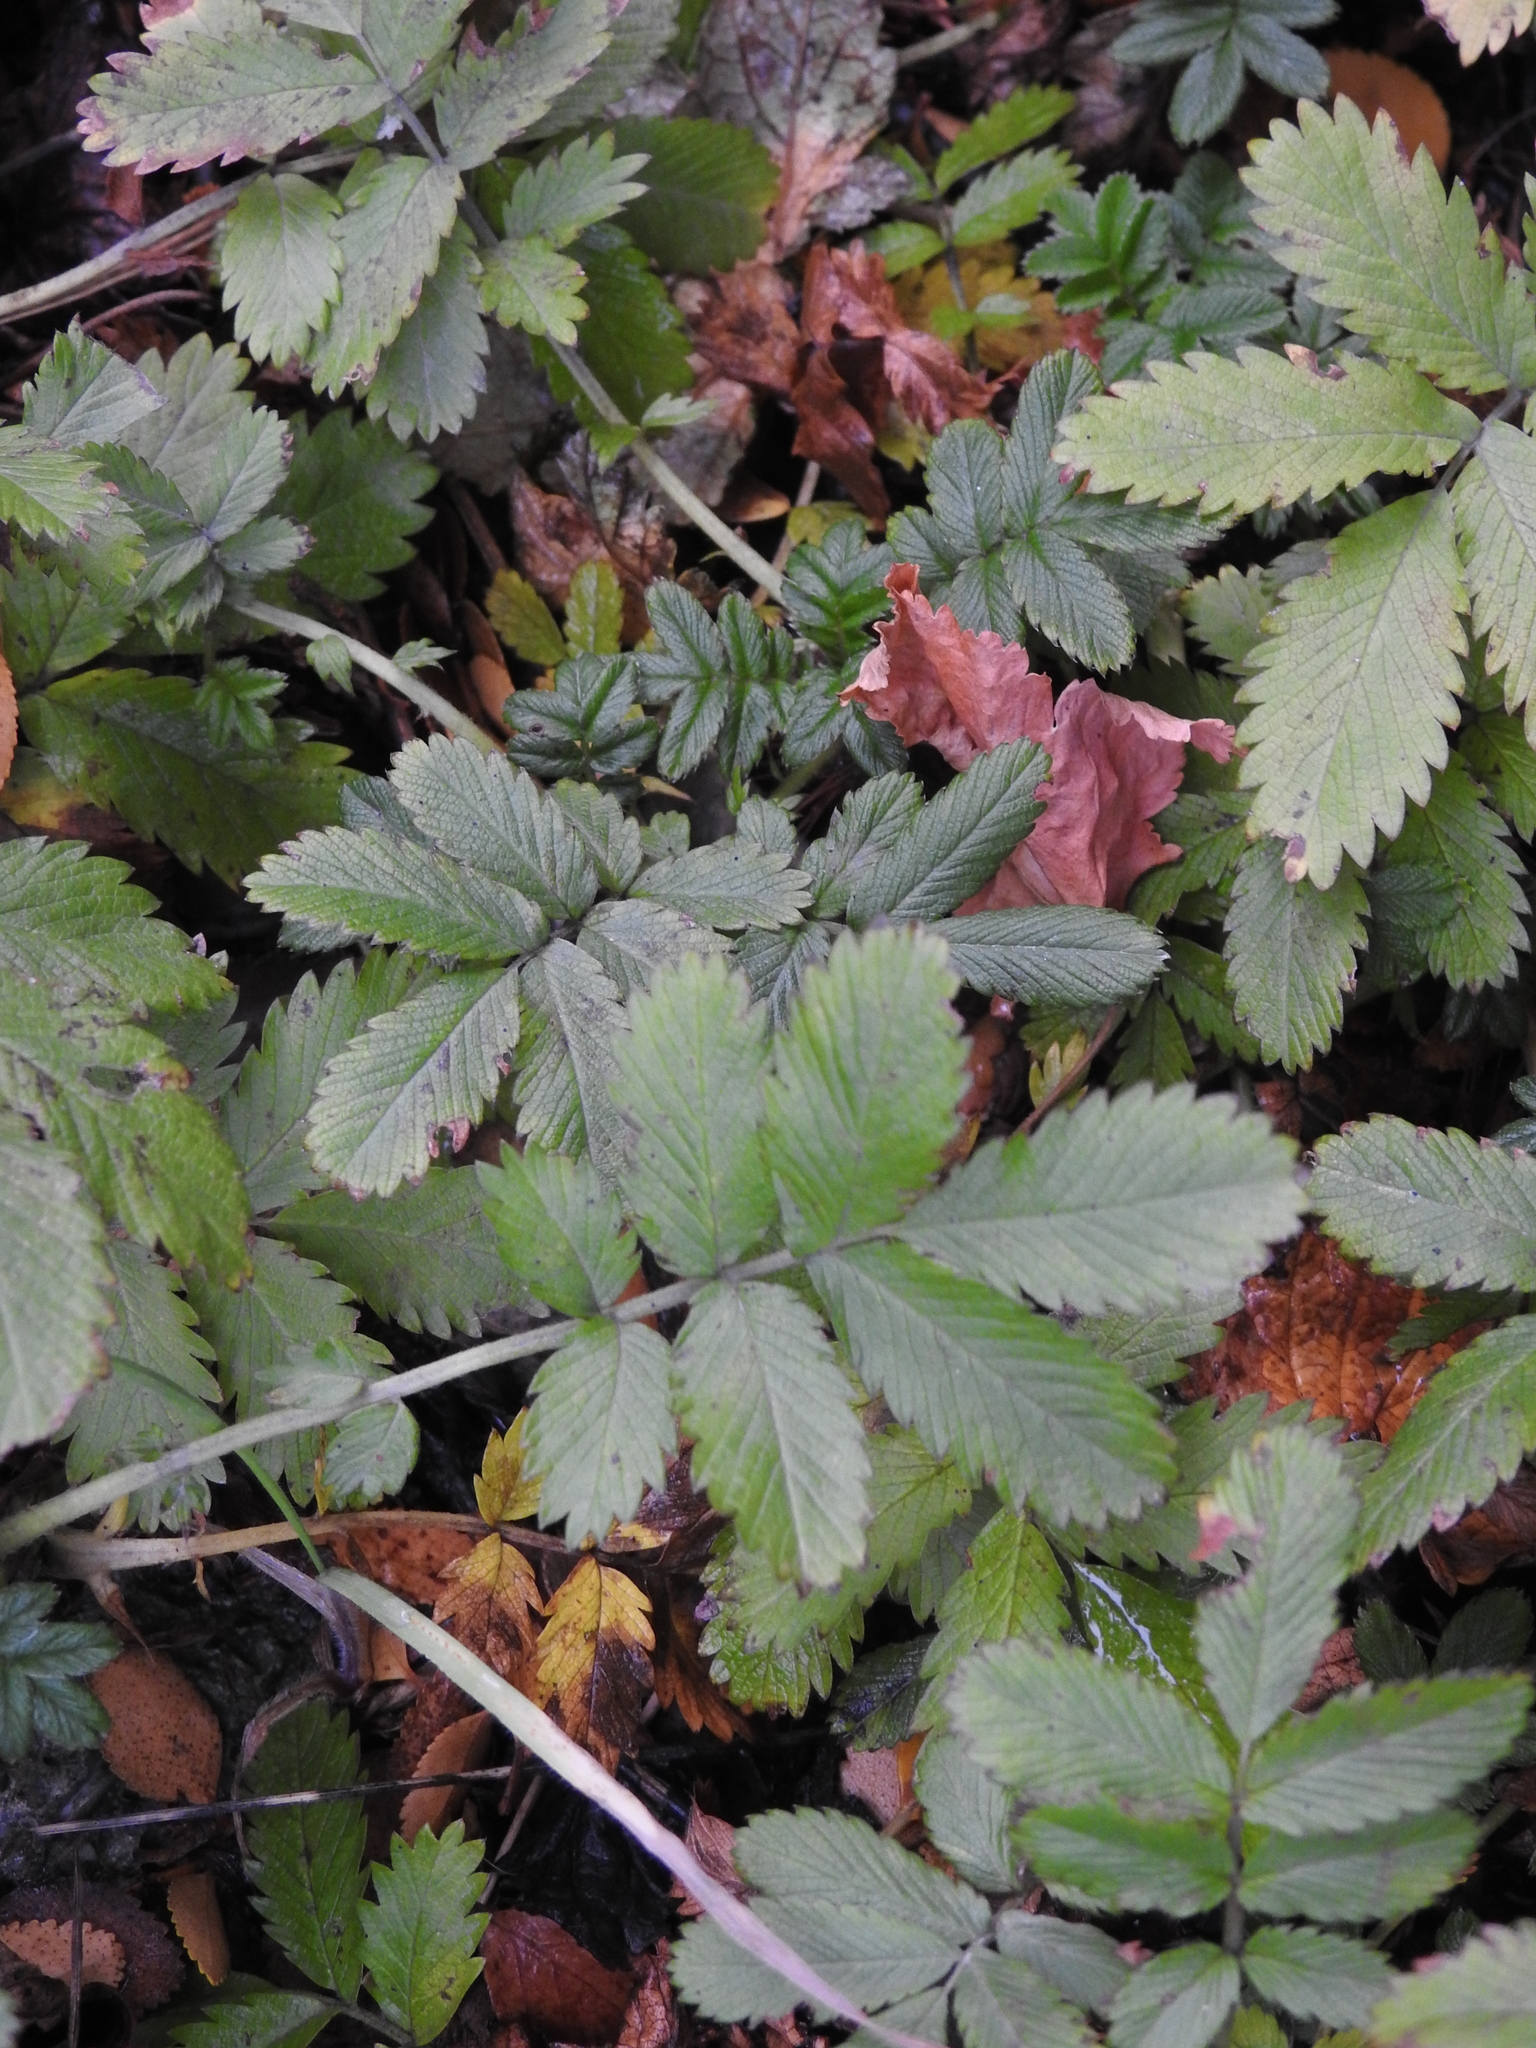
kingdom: Plantae
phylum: Tracheophyta
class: Magnoliopsida
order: Rosales
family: Rosaceae
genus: Acaena
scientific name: Acaena ovalifolia
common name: Two-spined acaena
